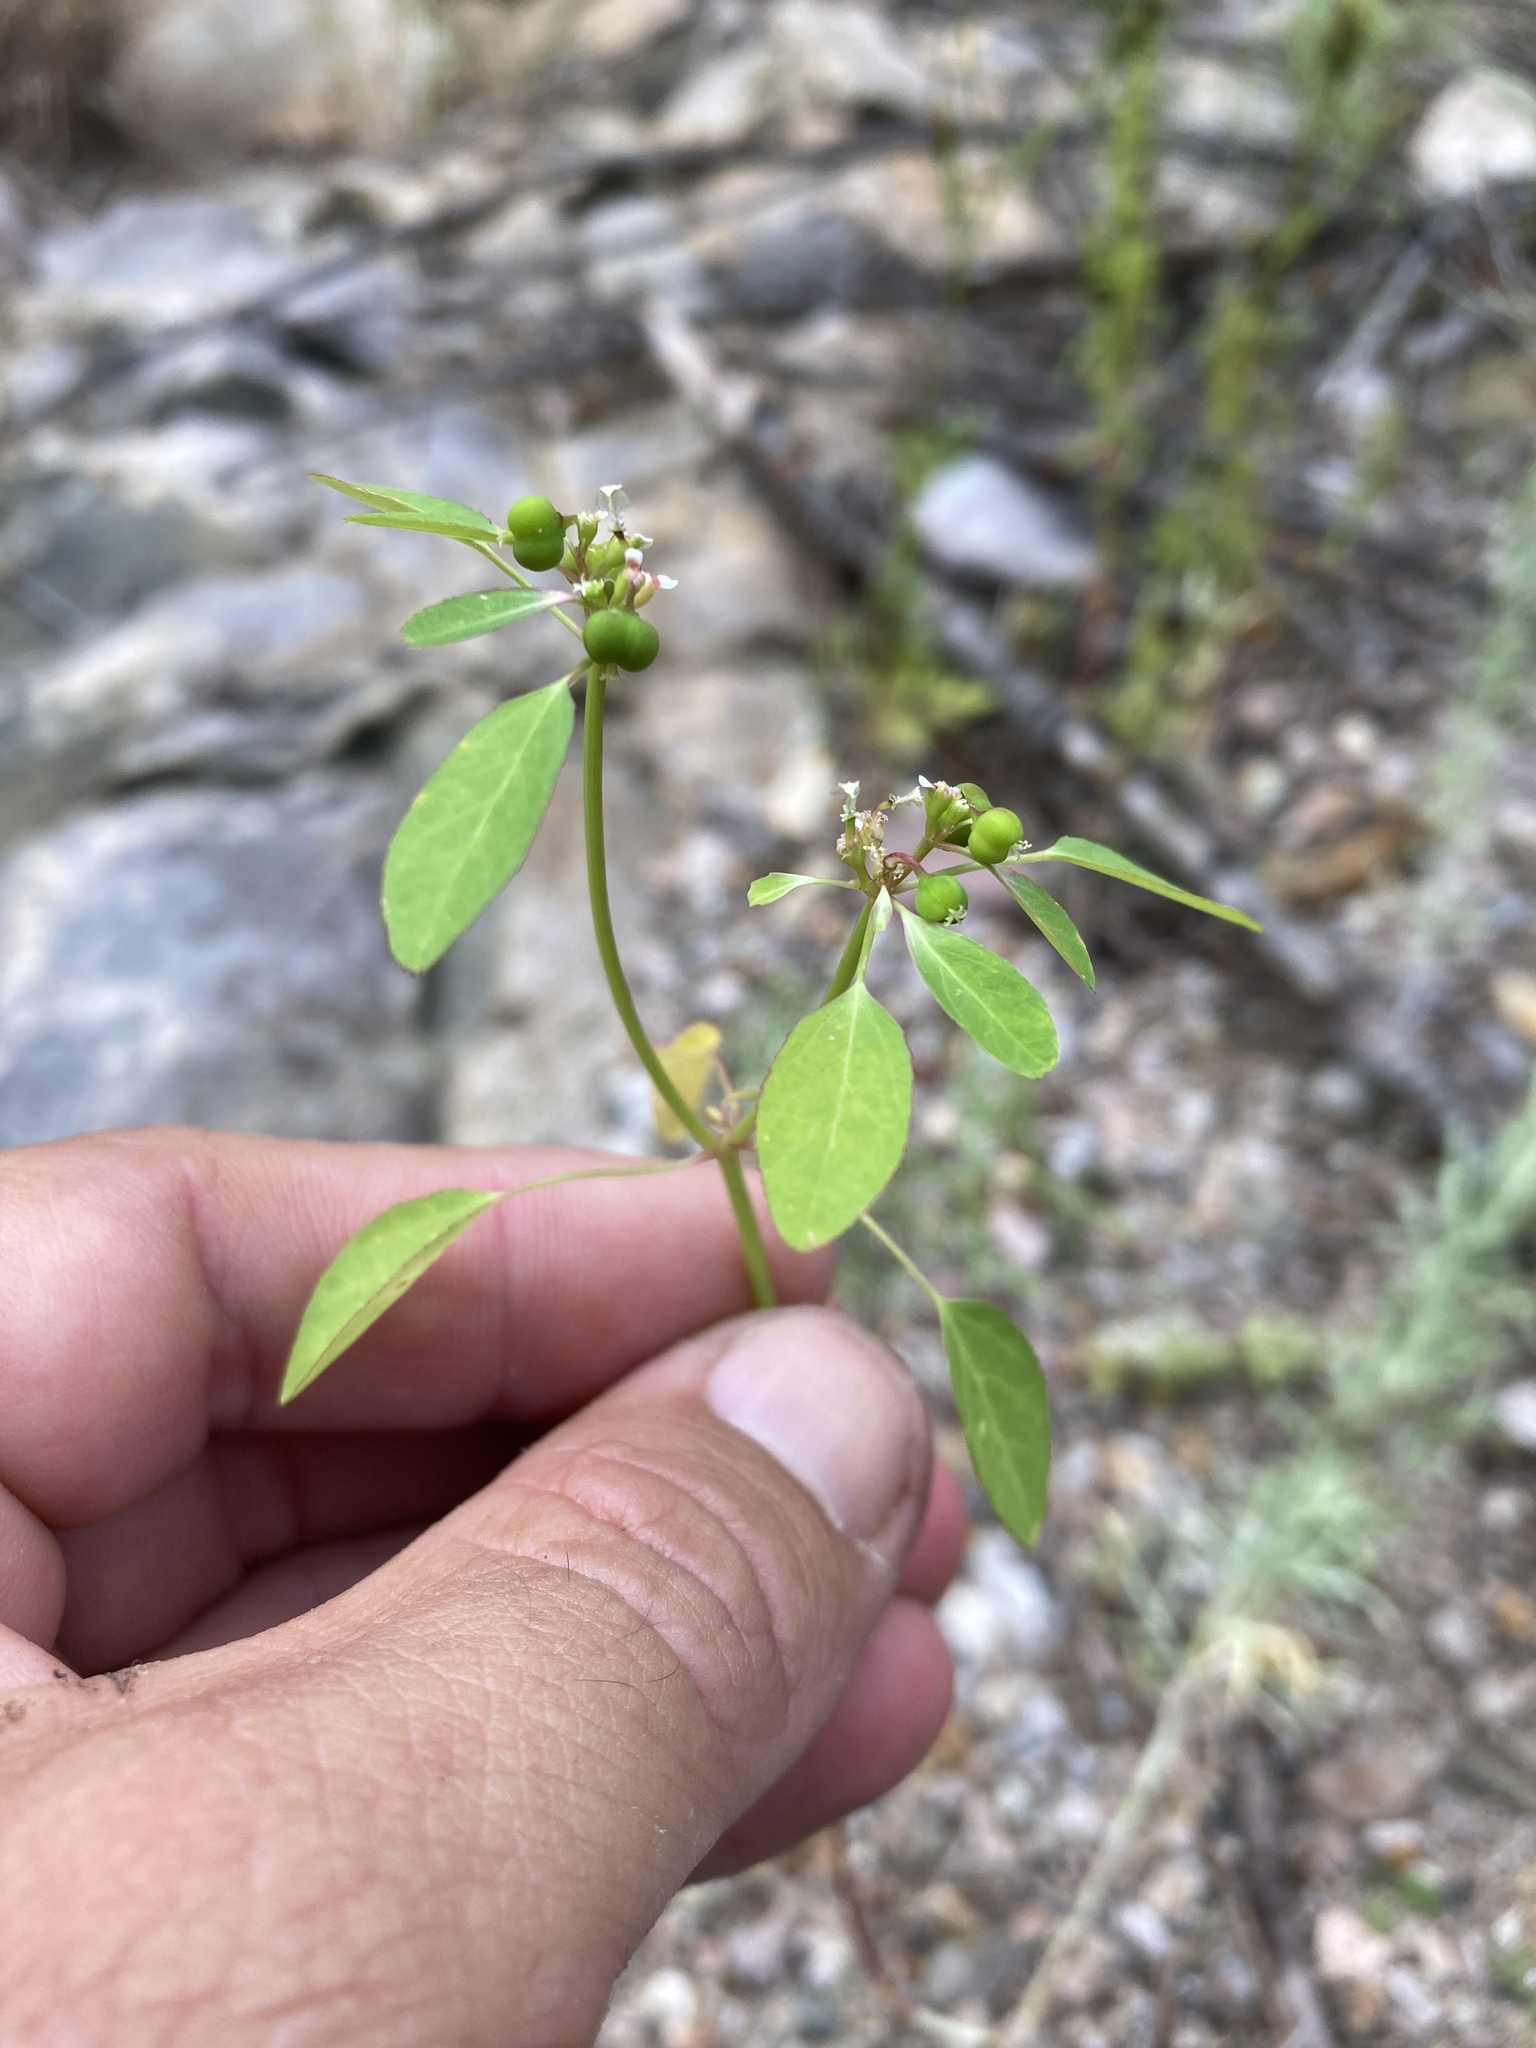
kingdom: Plantae
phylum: Tracheophyta
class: Magnoliopsida
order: Malpighiales
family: Euphorbiaceae
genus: Euphorbia
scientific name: Euphorbia bifurcata
